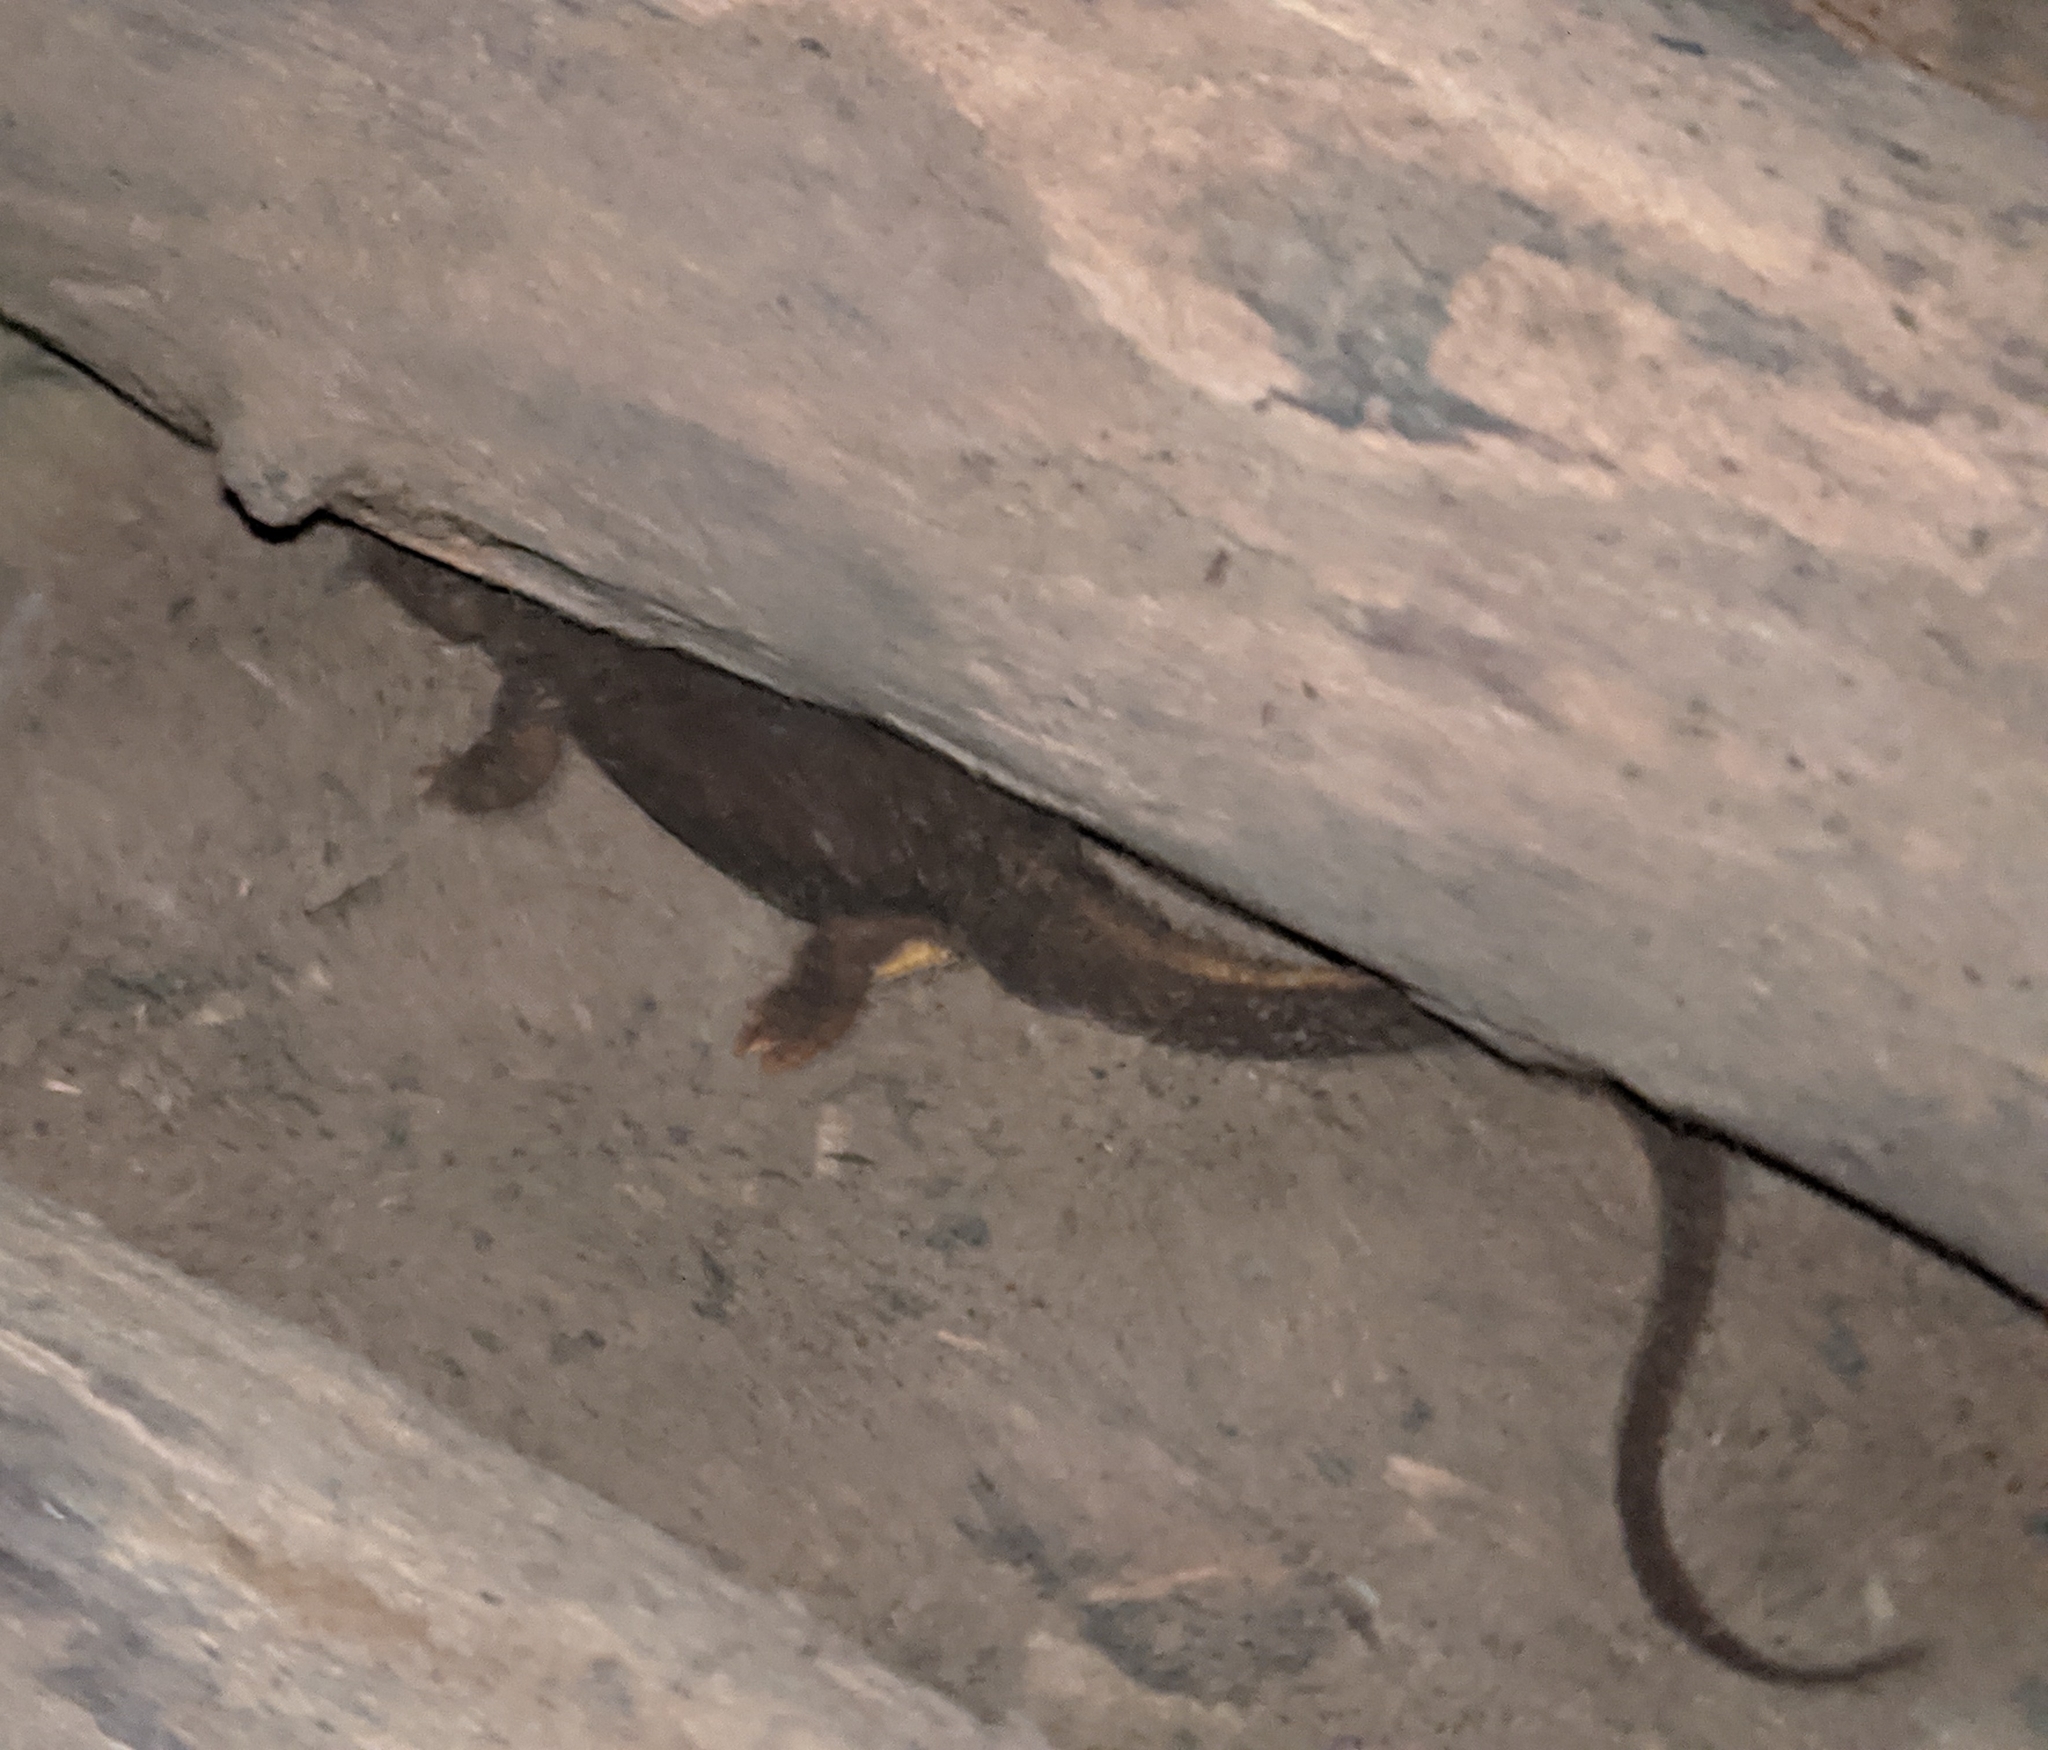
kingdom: Animalia
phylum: Chordata
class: Amphibia
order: Caudata
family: Salamandridae
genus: Taricha
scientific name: Taricha granulosa
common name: Roughskin newt
